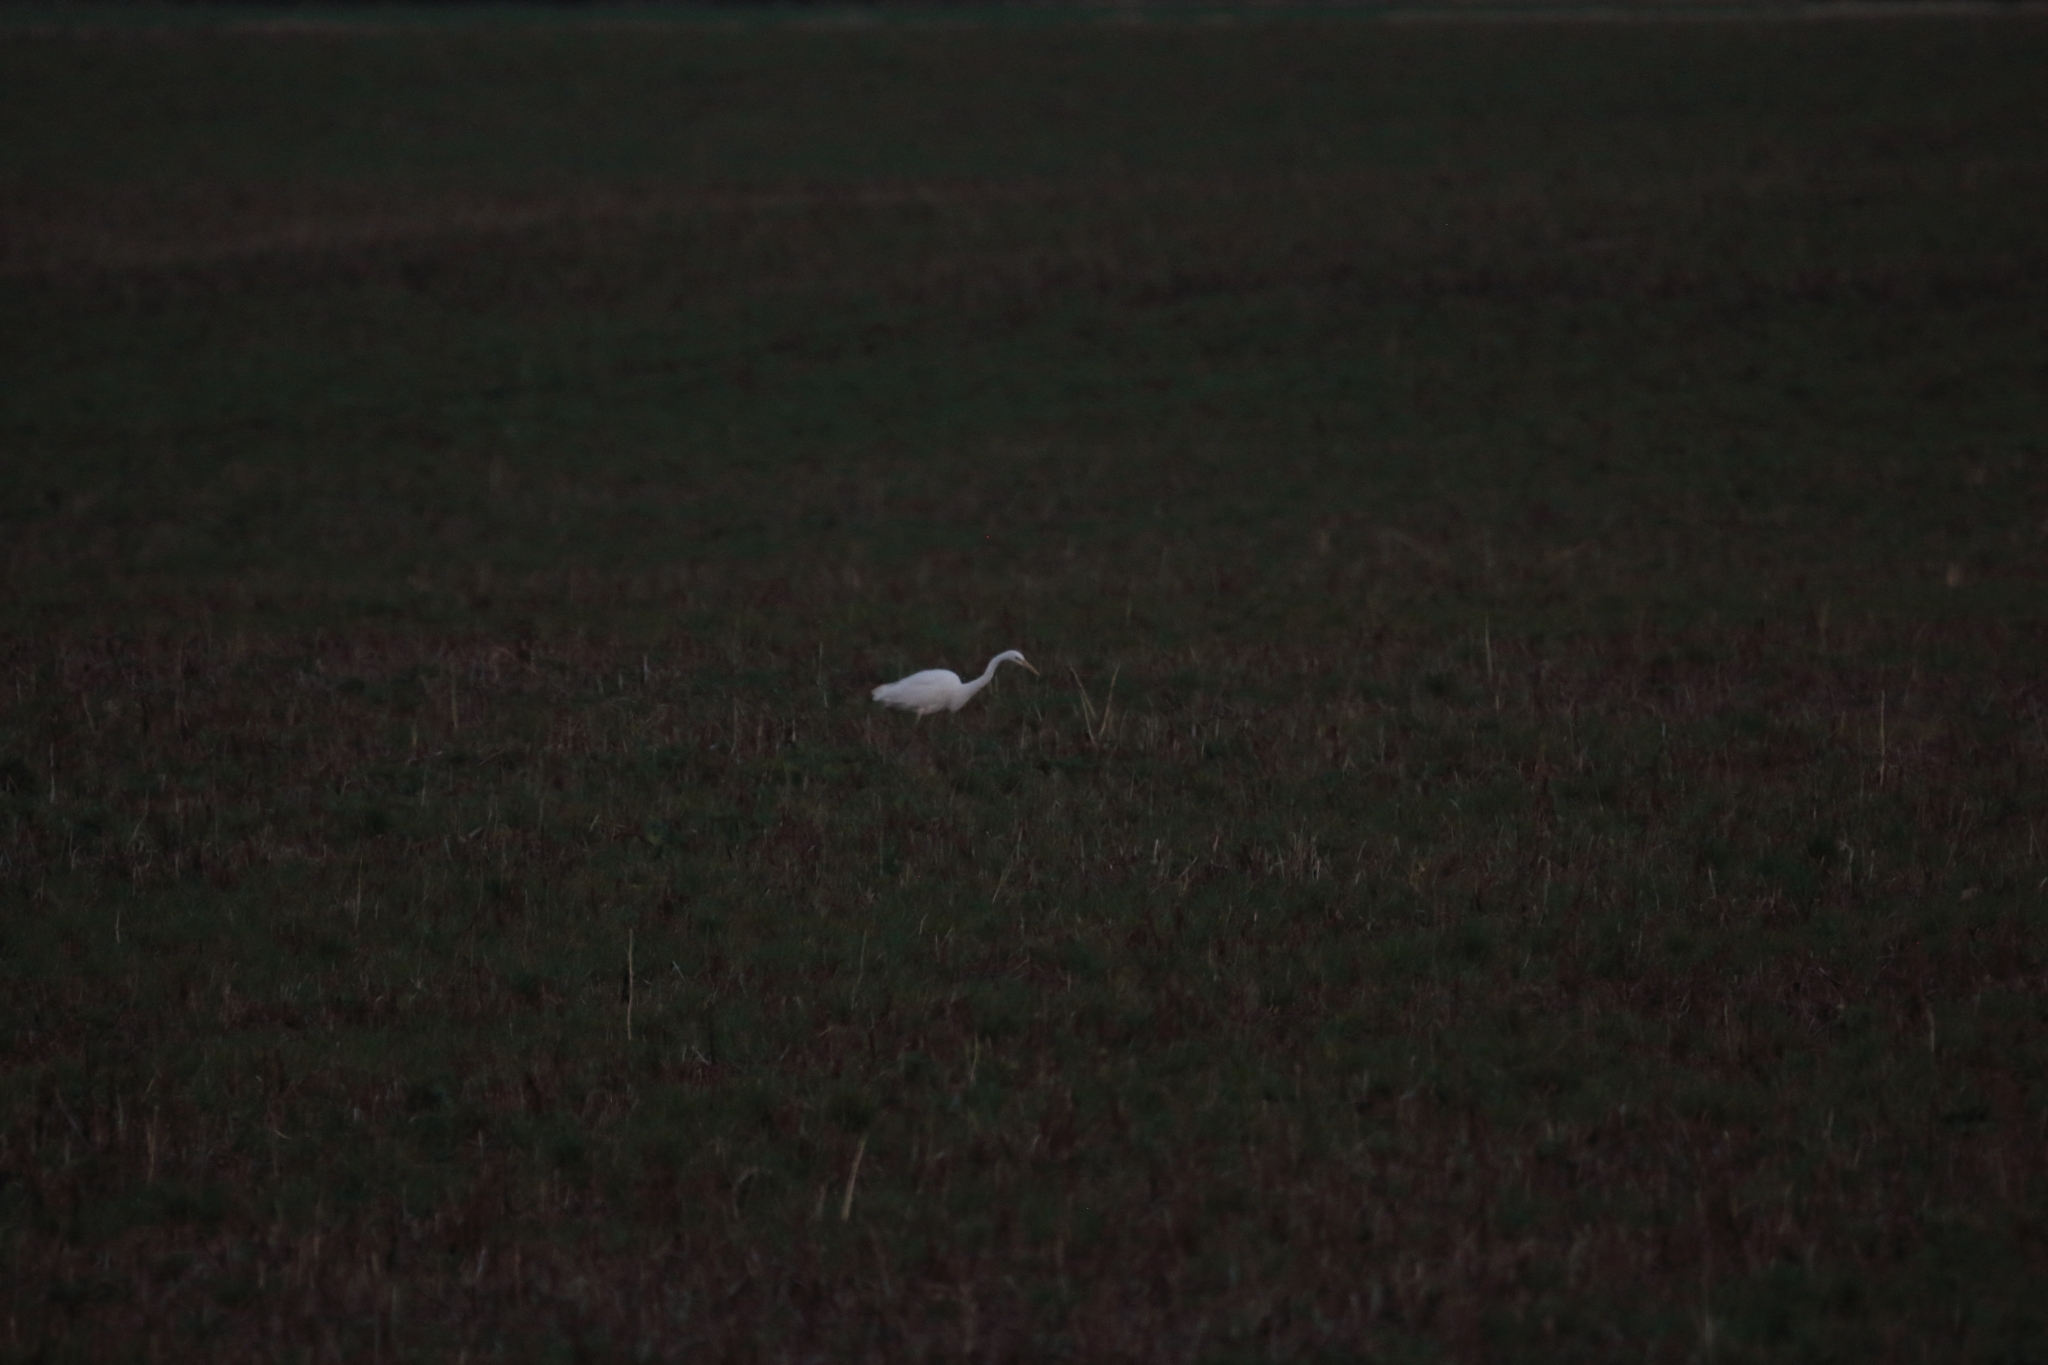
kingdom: Animalia
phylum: Chordata
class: Aves
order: Pelecaniformes
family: Ardeidae
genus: Ardea
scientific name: Ardea alba
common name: Great egret
